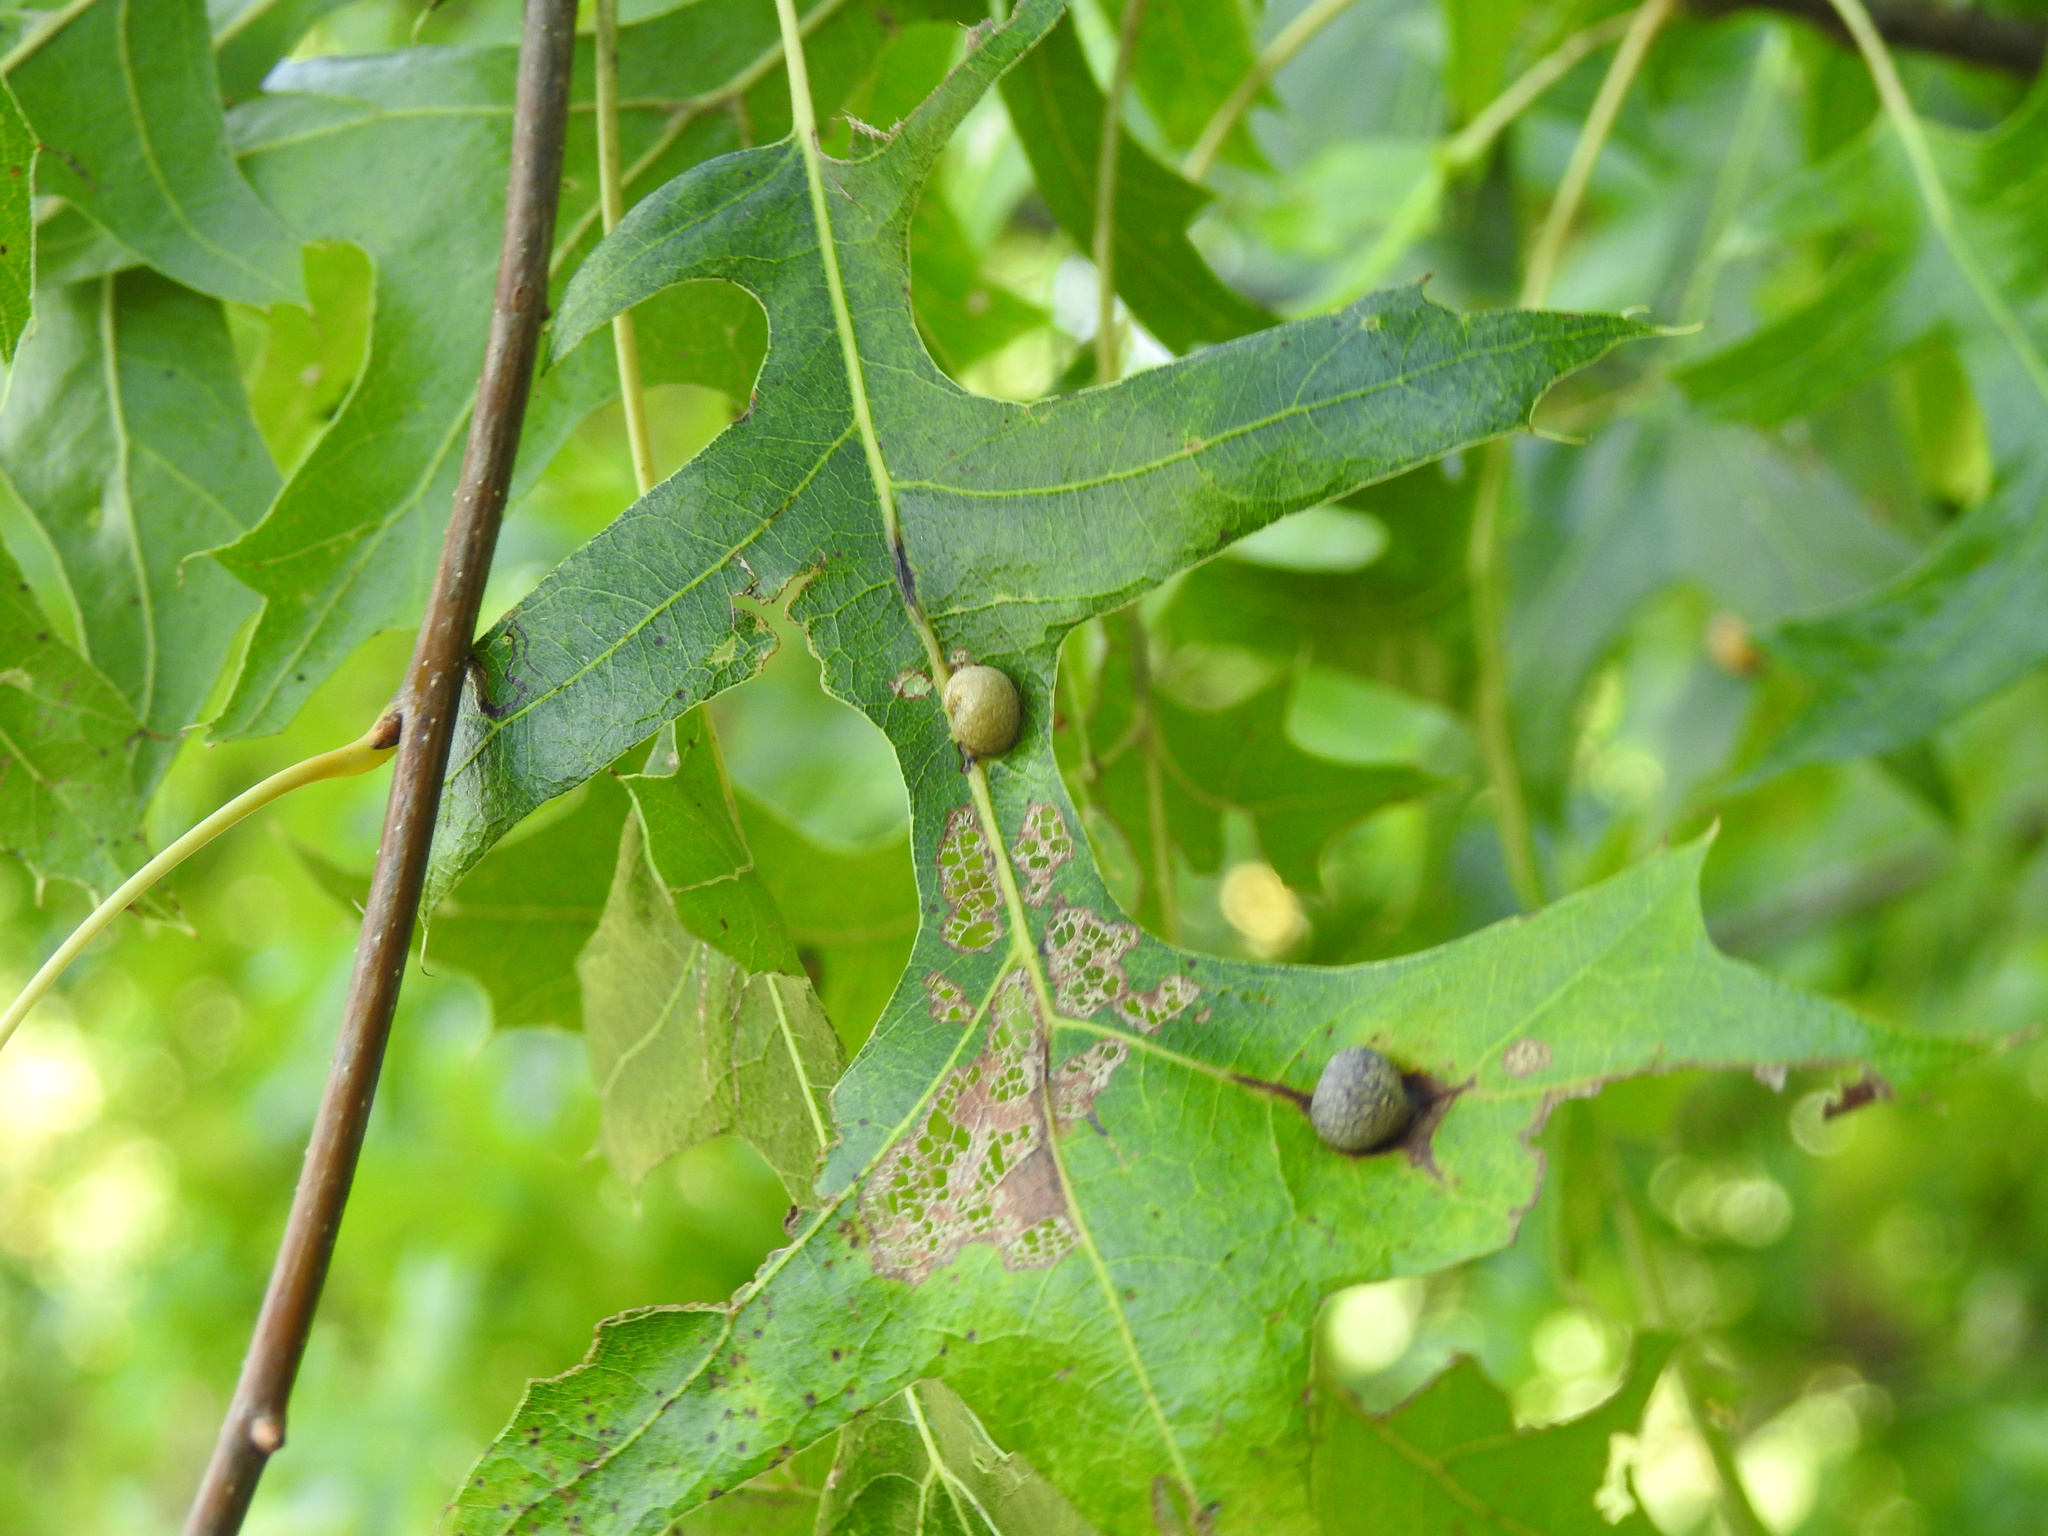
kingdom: Animalia
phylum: Arthropoda
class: Insecta
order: Diptera
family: Cecidomyiidae
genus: Polystepha
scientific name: Polystepha pilulae
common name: Oak leaf gall midge
